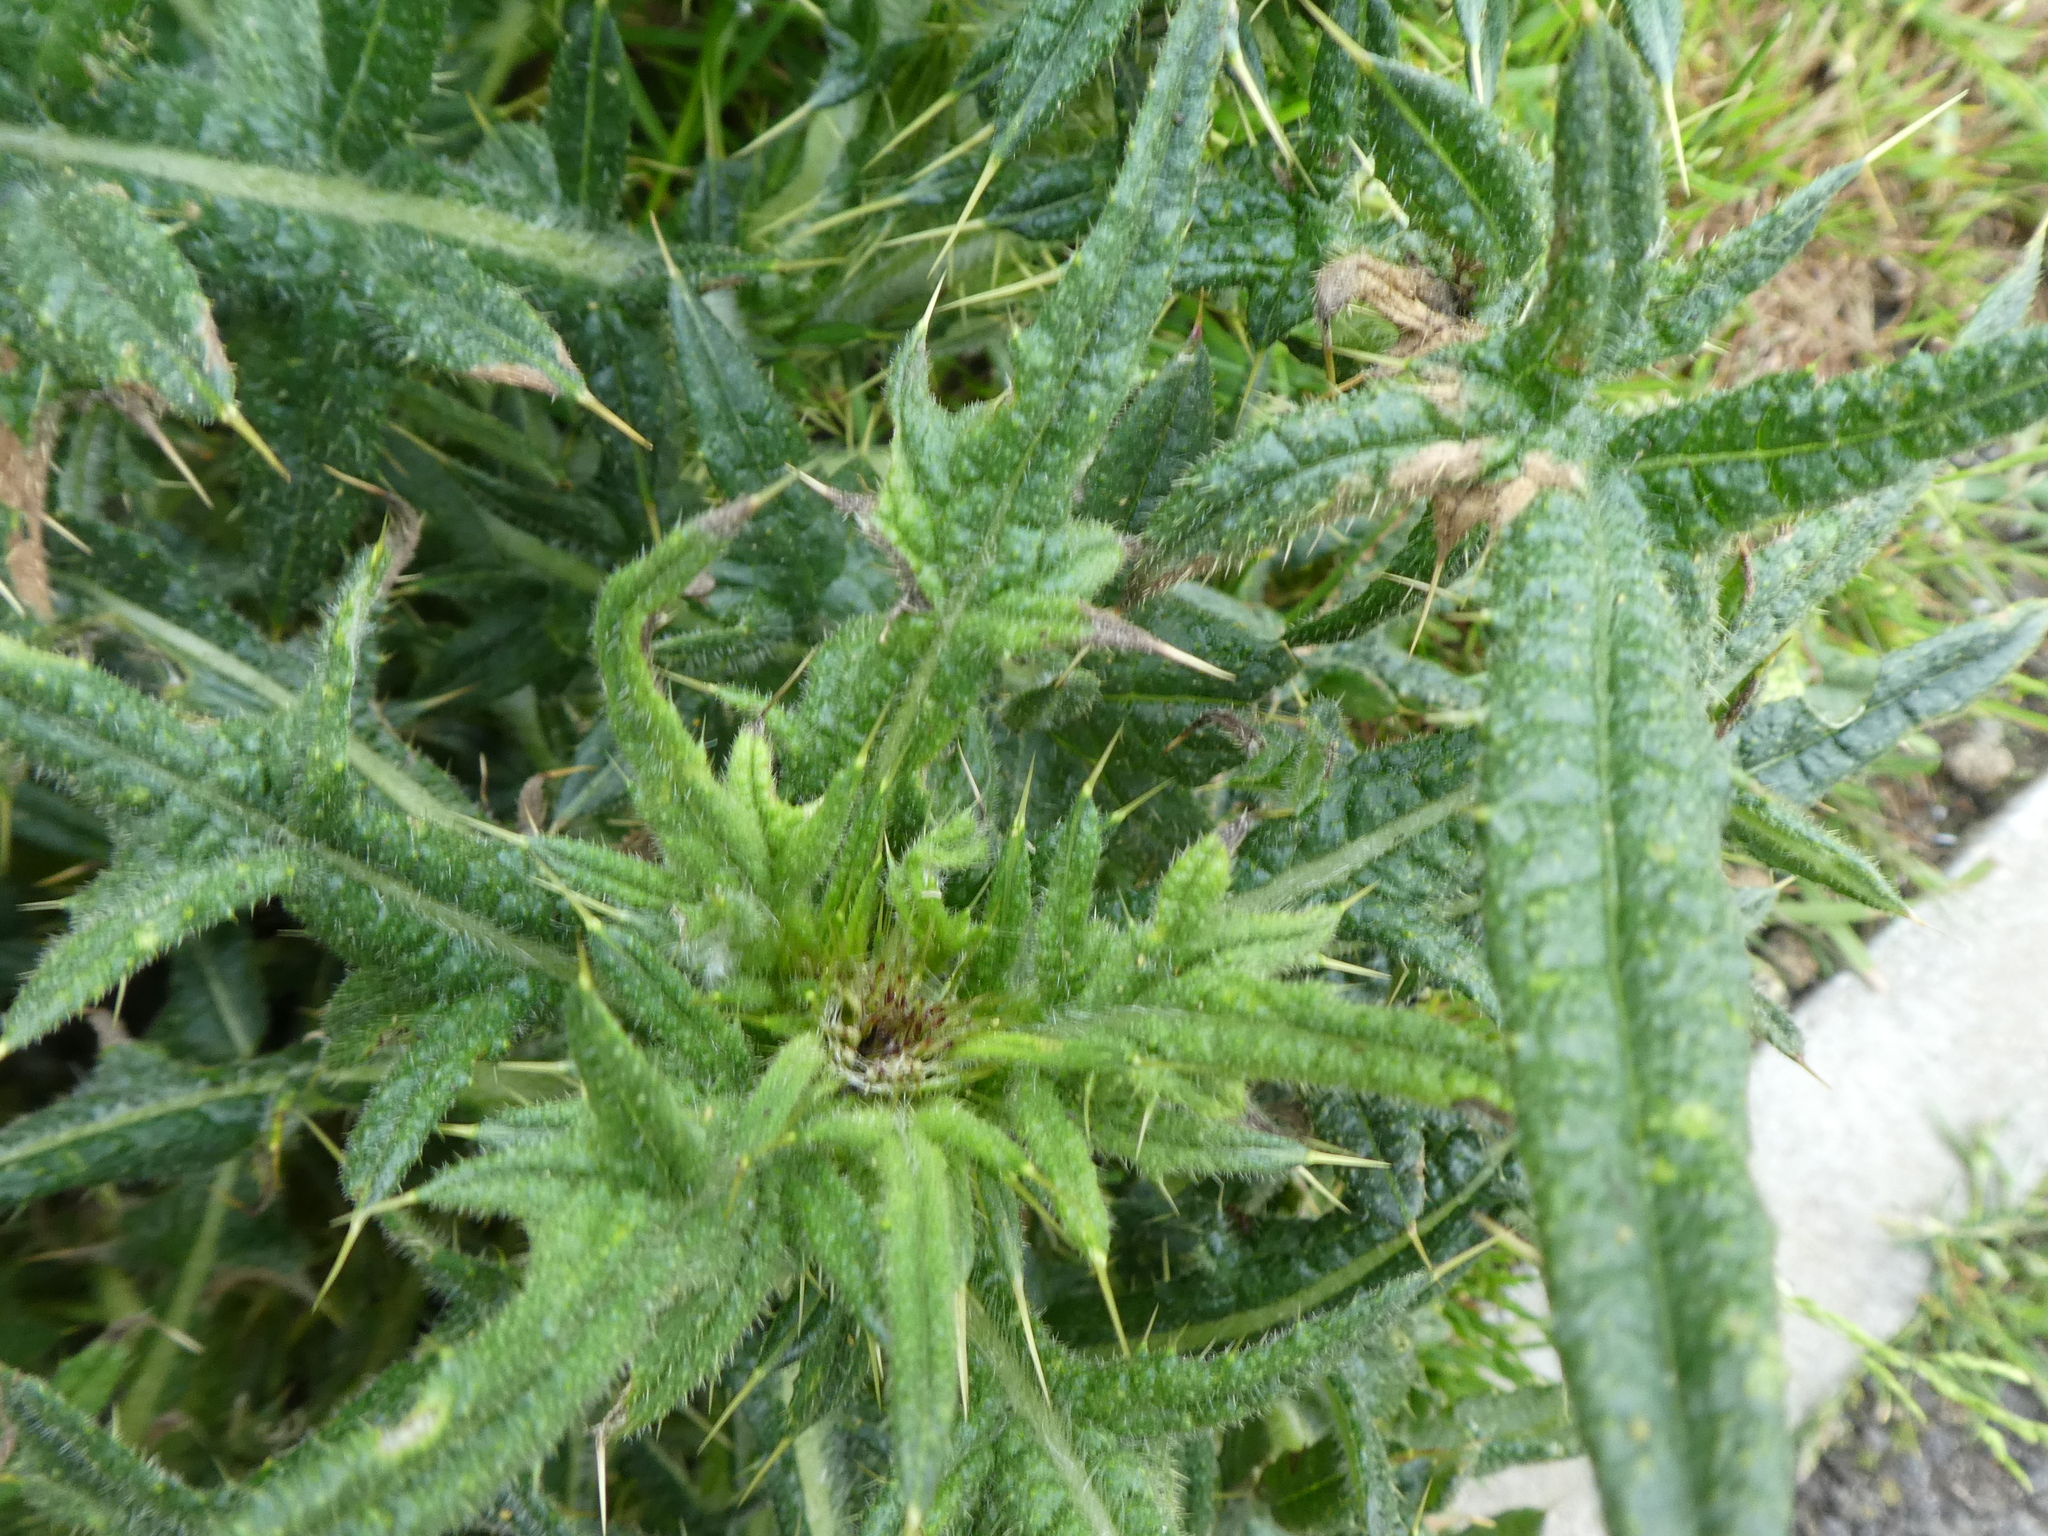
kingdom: Plantae
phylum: Tracheophyta
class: Magnoliopsida
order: Asterales
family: Asteraceae
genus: Cirsium
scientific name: Cirsium vulgare
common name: Bull thistle
